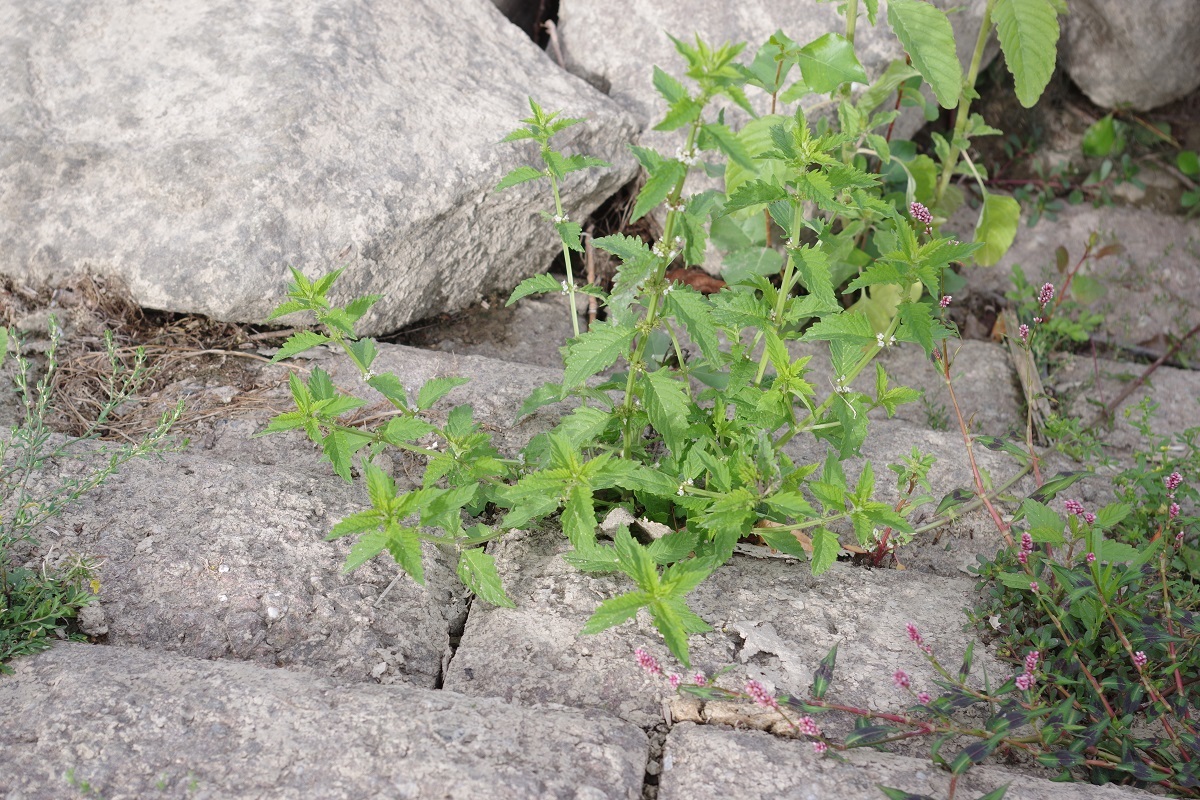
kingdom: Plantae
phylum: Tracheophyta
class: Magnoliopsida
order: Lamiales
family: Lamiaceae
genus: Lycopus
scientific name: Lycopus europaeus
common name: European bugleweed
